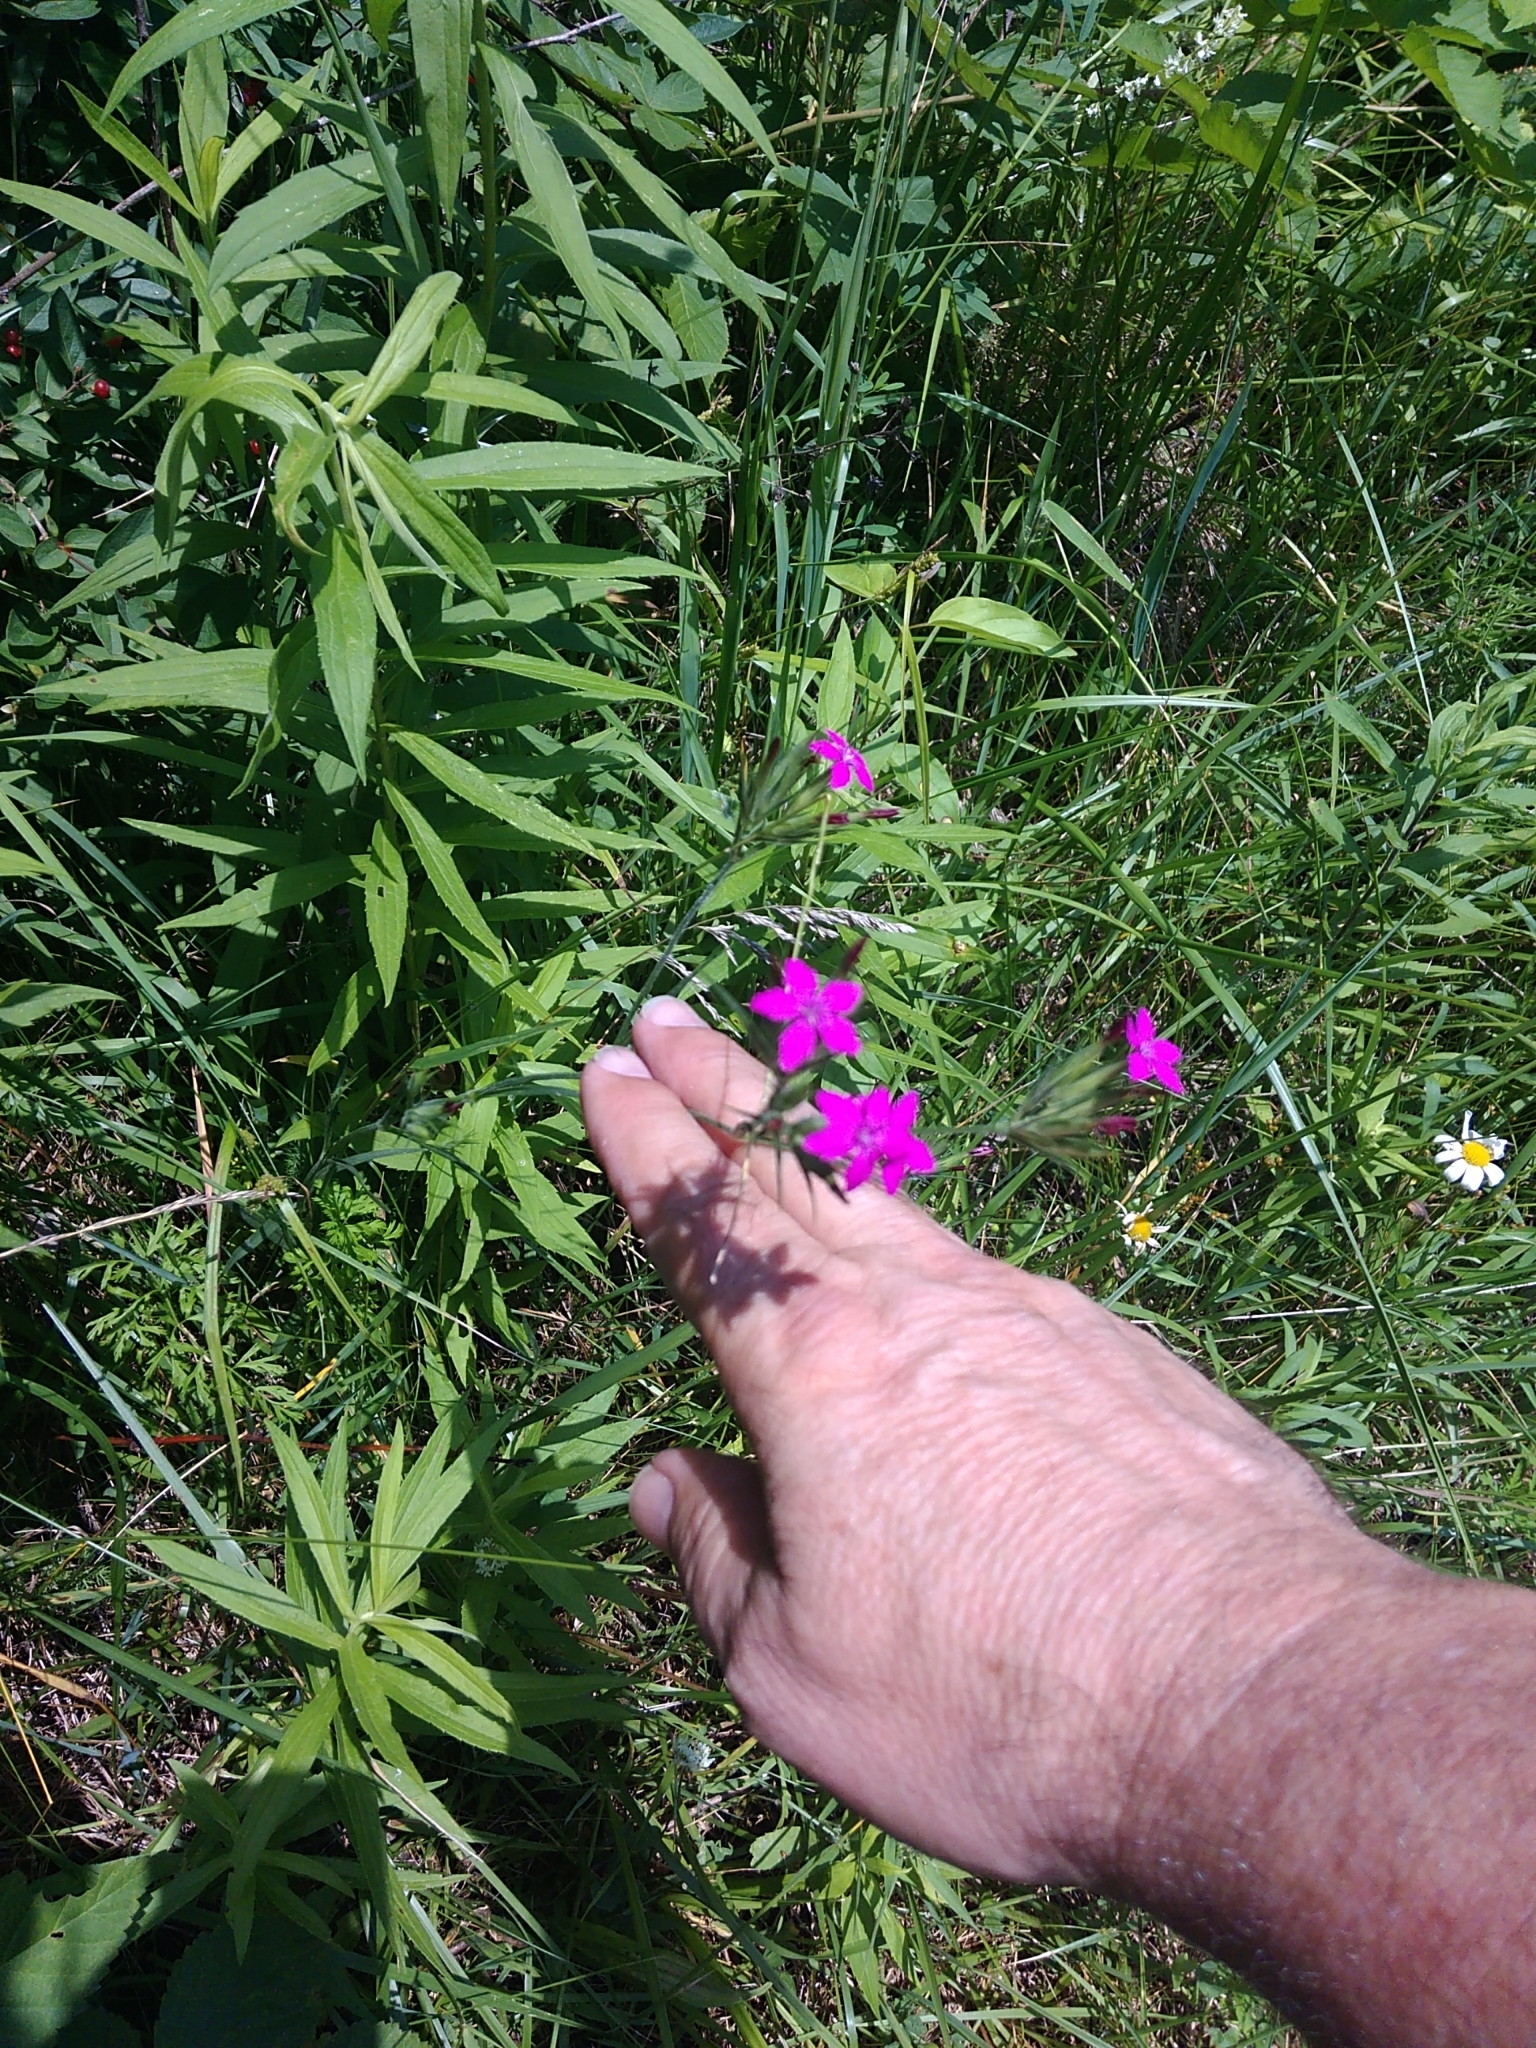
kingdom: Plantae
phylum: Tracheophyta
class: Magnoliopsida
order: Caryophyllales
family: Caryophyllaceae
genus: Dianthus
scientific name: Dianthus armeria
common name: Deptford pink
